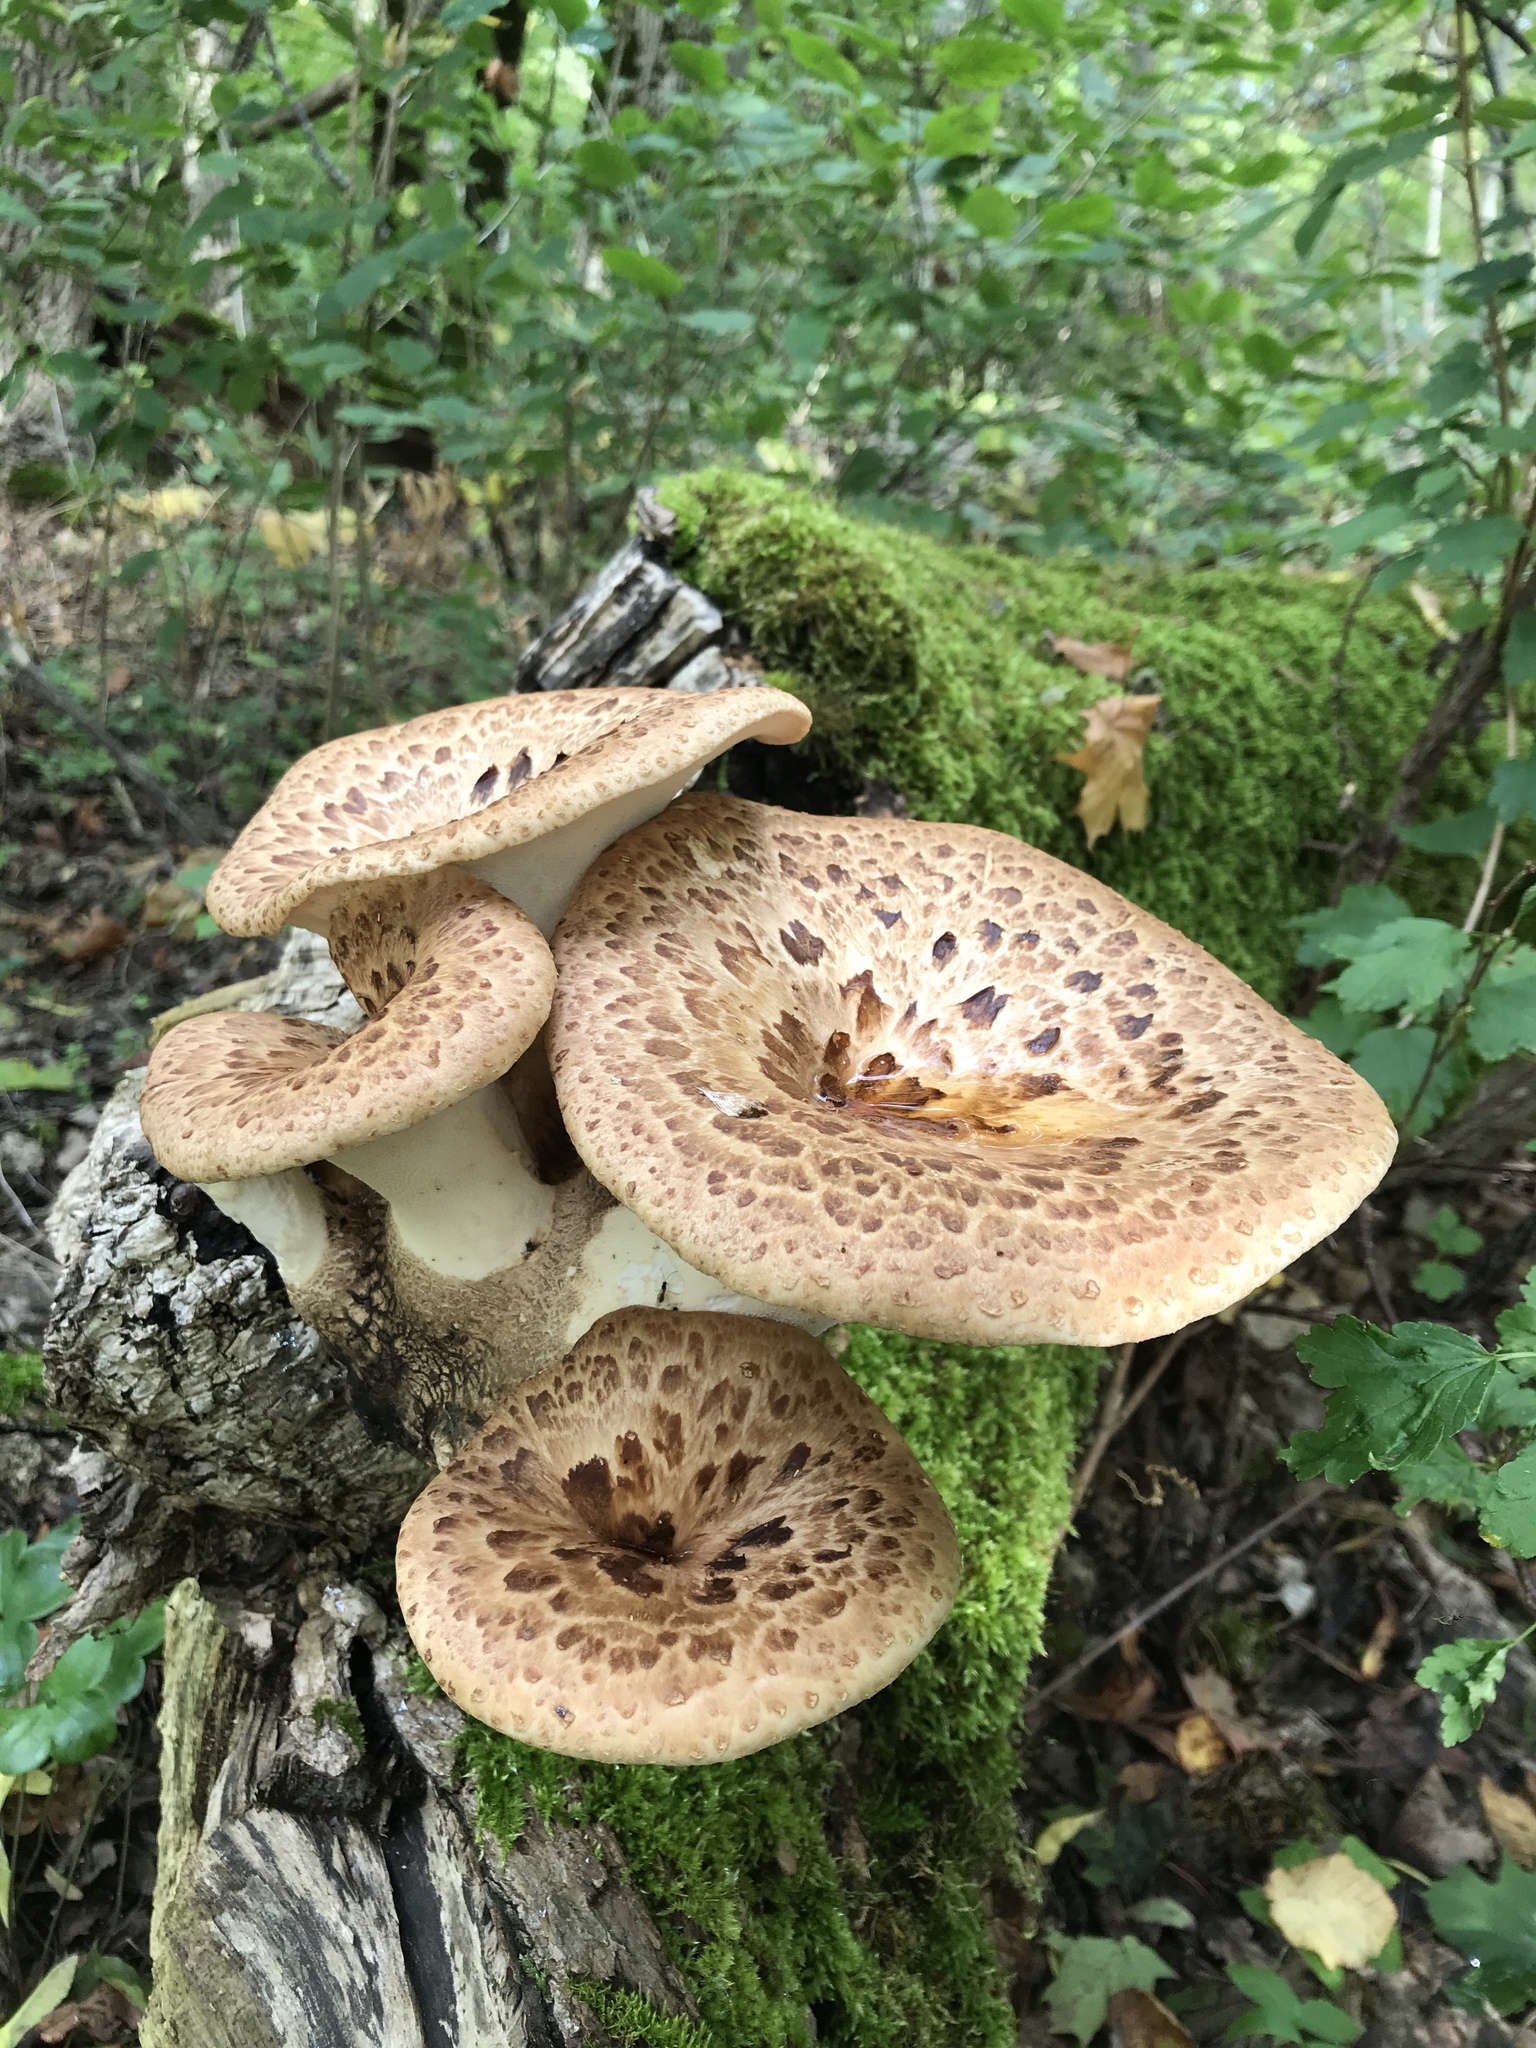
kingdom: Fungi
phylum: Basidiomycota
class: Agaricomycetes
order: Polyporales
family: Polyporaceae
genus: Cerioporus
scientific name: Cerioporus squamosus
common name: Dryad's saddle
